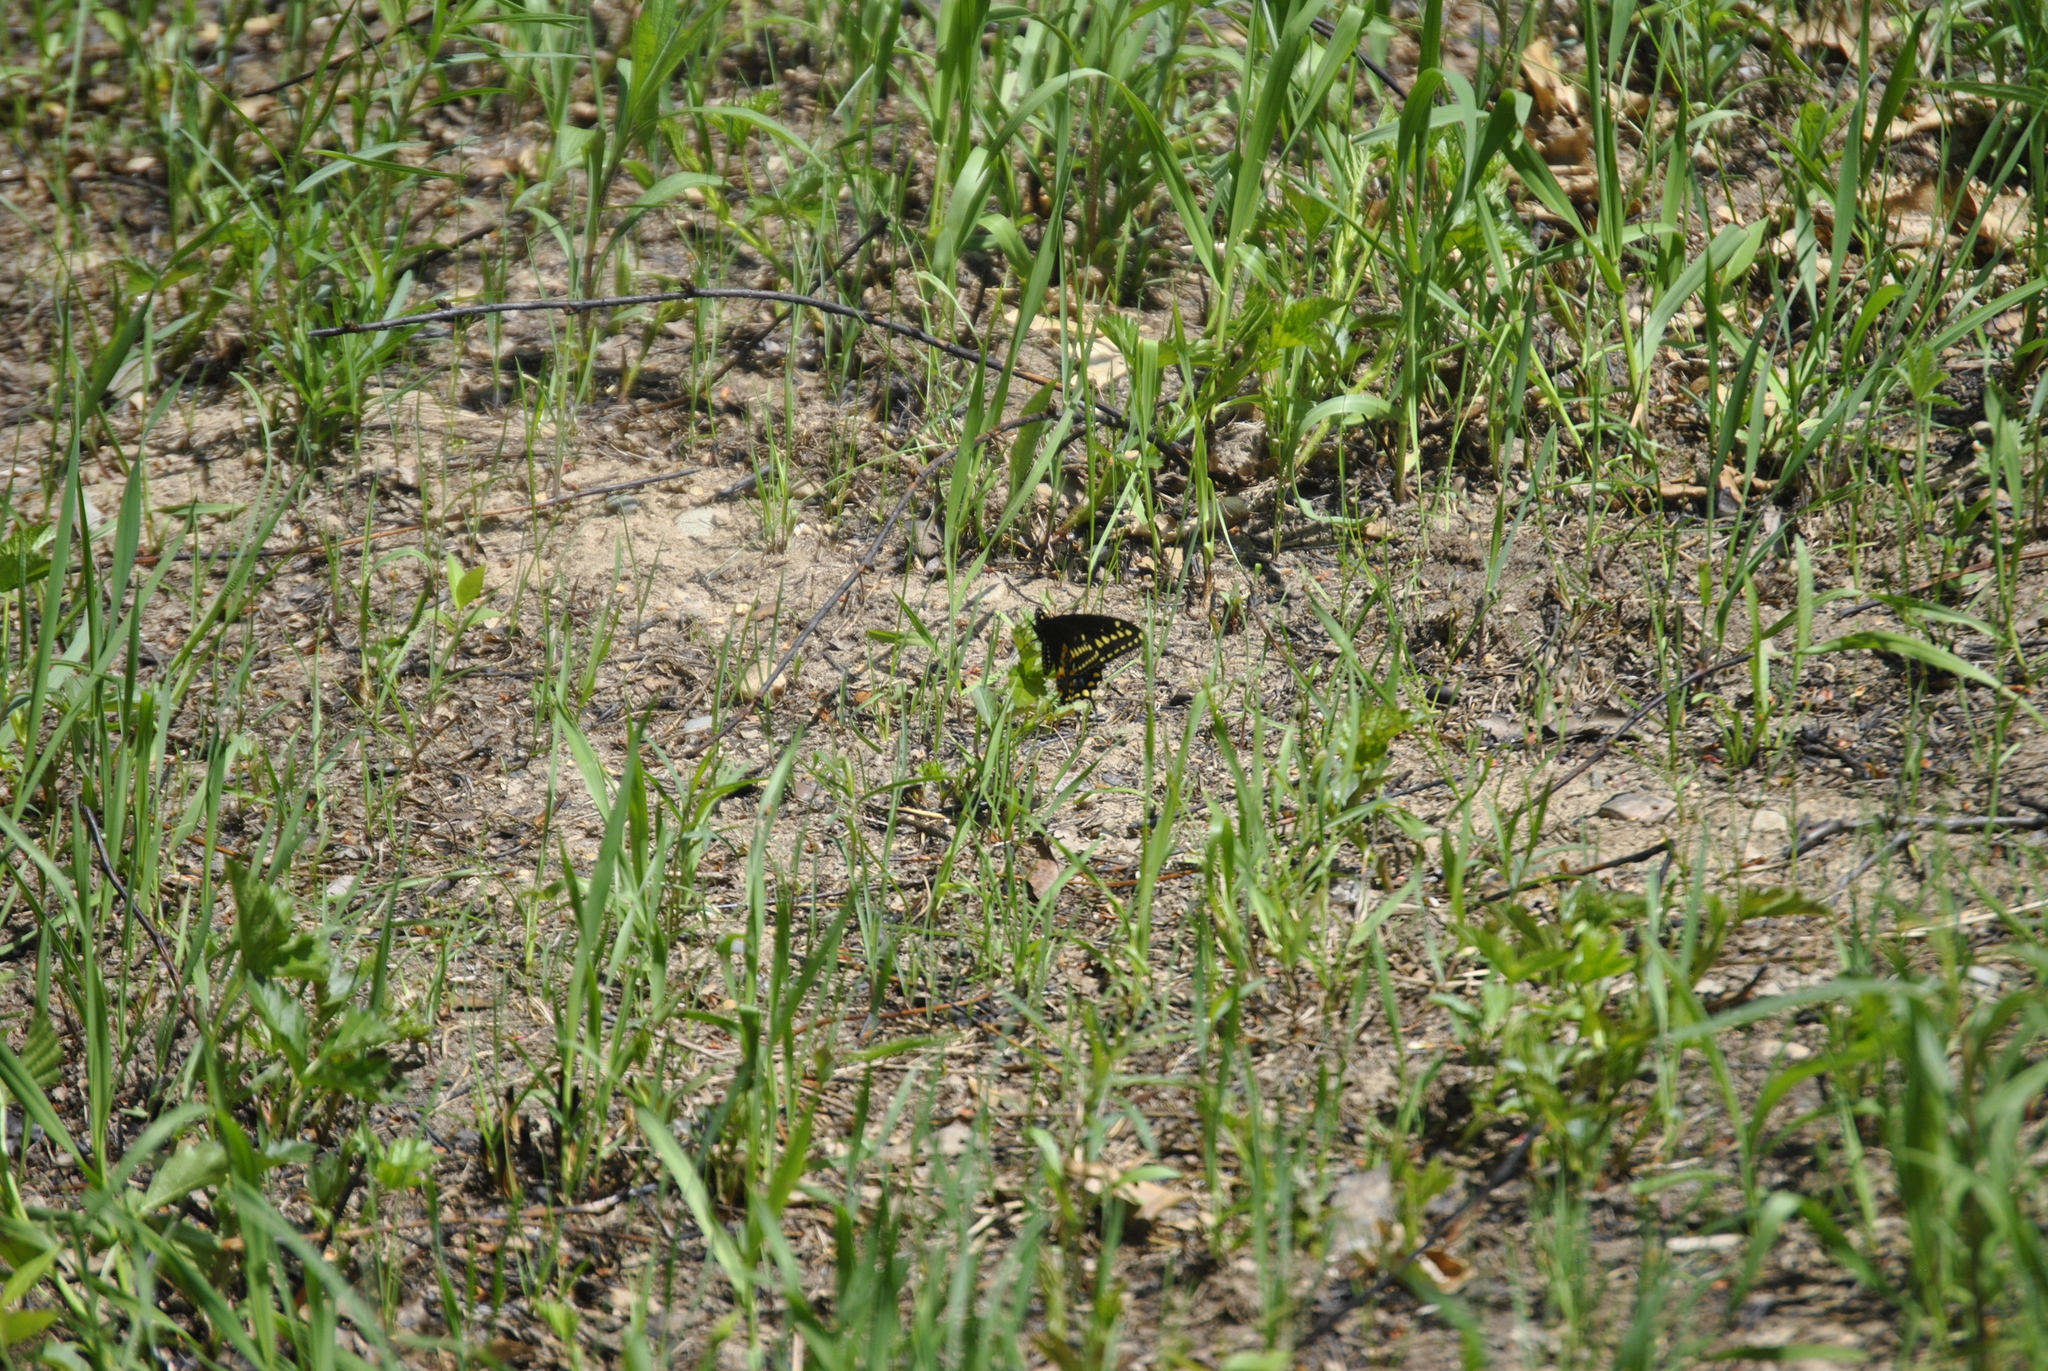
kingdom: Animalia
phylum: Arthropoda
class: Insecta
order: Lepidoptera
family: Papilionidae
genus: Papilio
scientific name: Papilio polyxenes
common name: Black swallowtail
